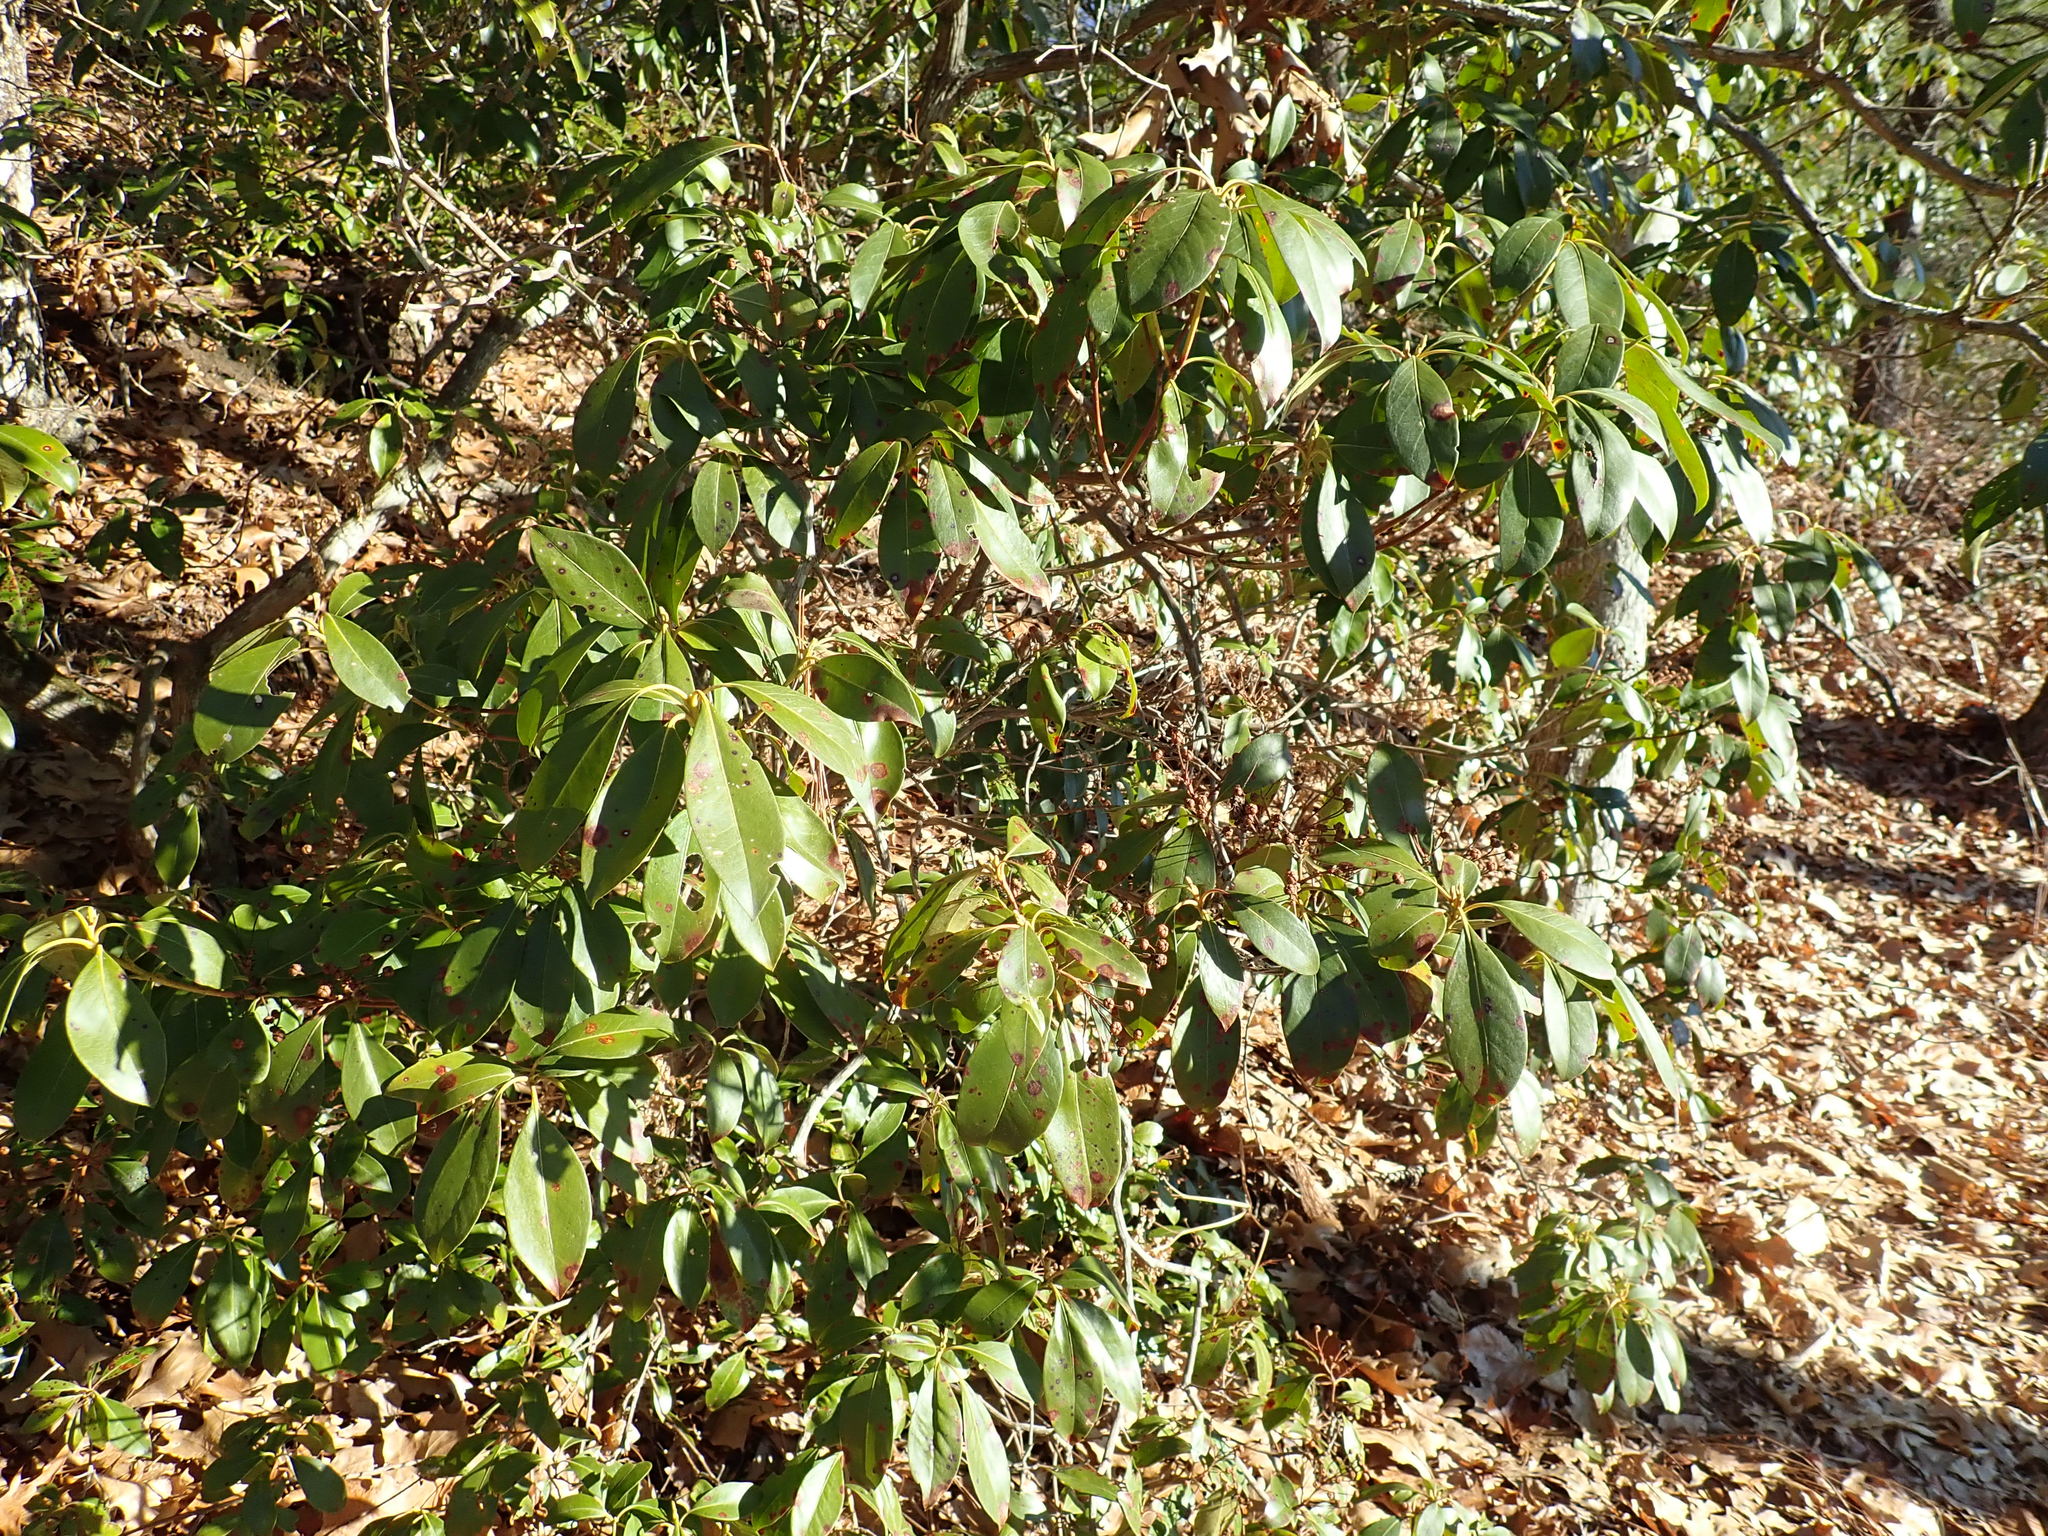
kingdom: Plantae
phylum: Tracheophyta
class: Magnoliopsida
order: Ericales
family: Ericaceae
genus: Kalmia
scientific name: Kalmia latifolia
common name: Mountain-laurel
